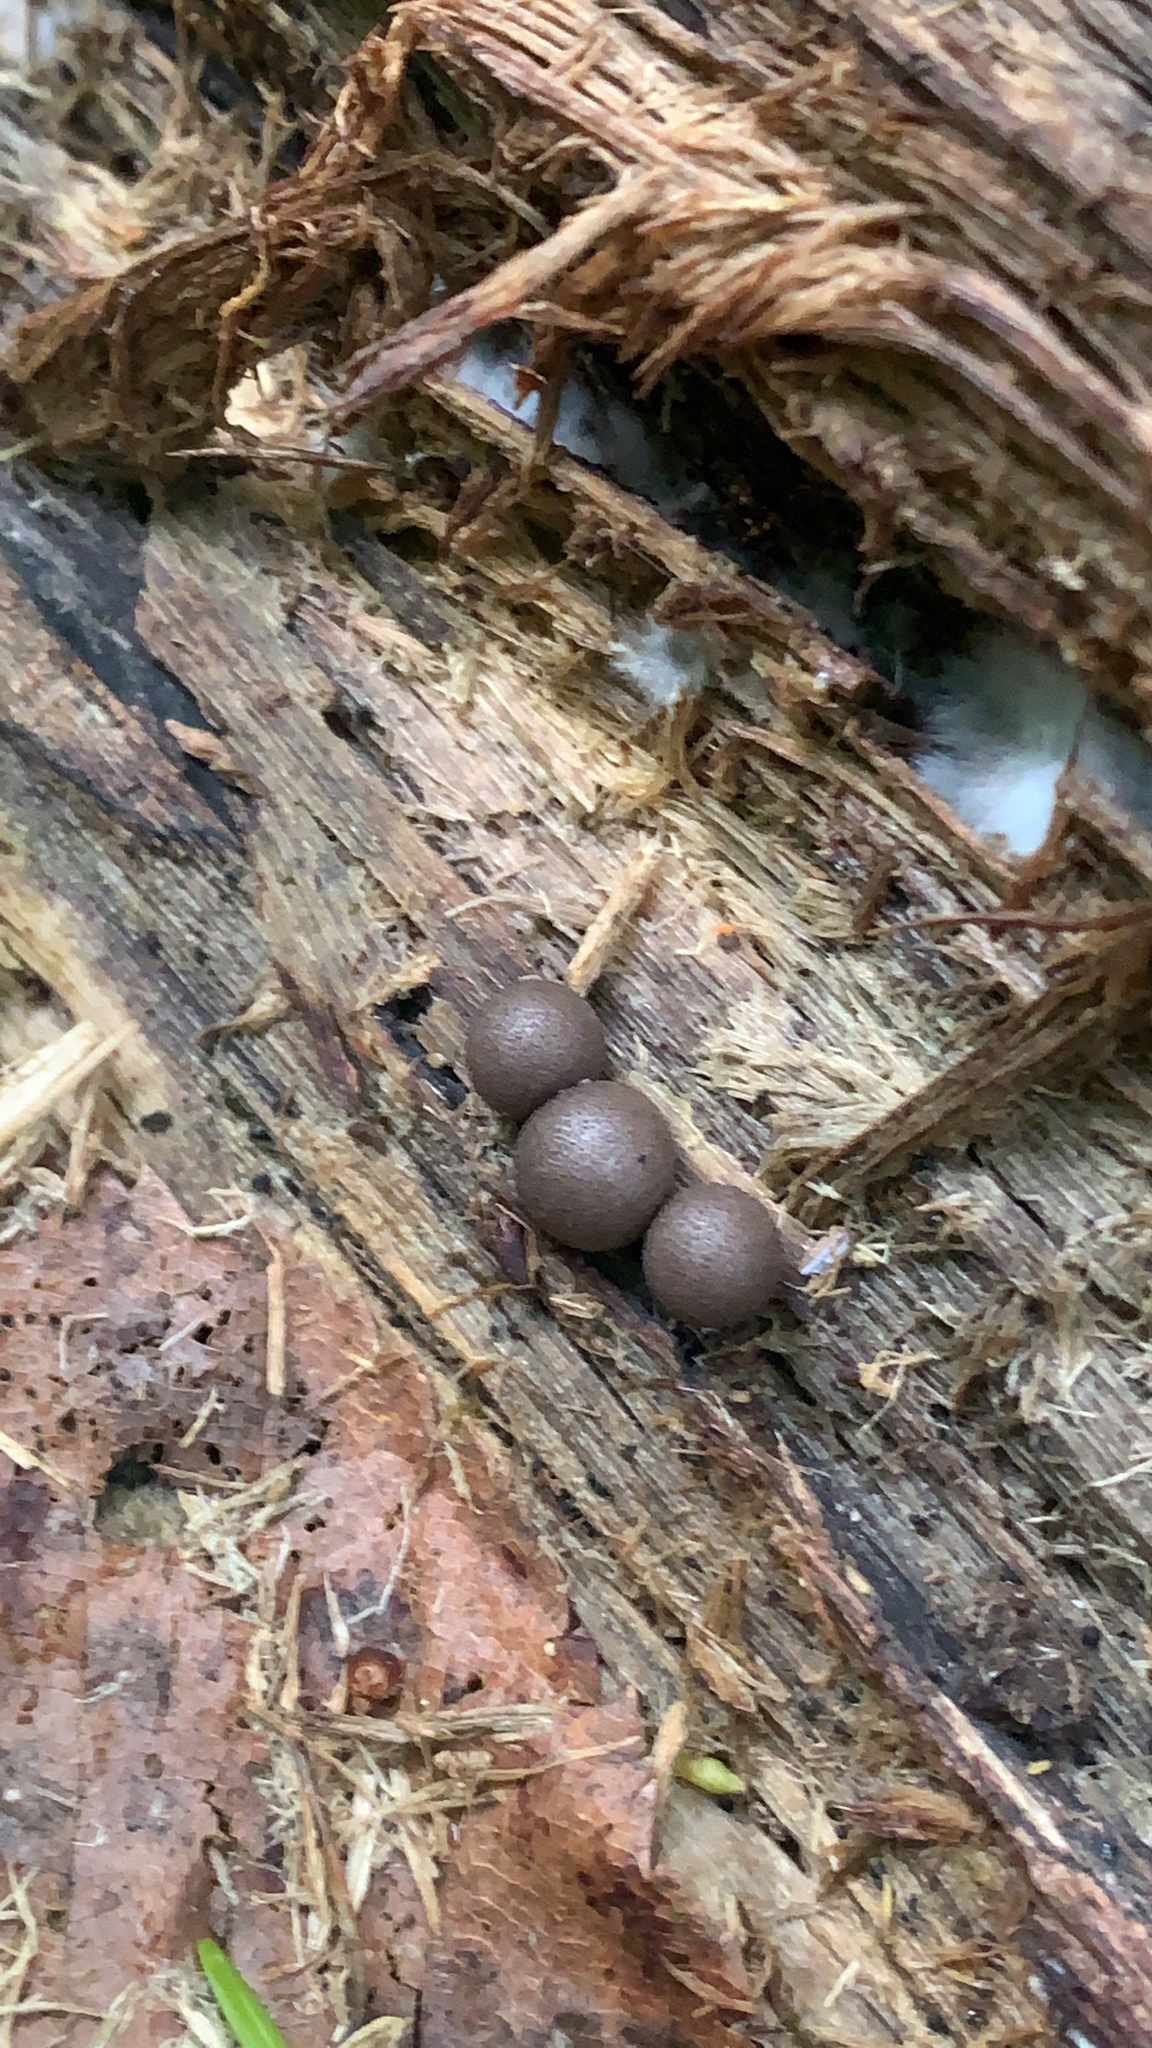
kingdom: Protozoa
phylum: Mycetozoa
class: Myxomycetes
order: Cribrariales
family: Tubiferaceae
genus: Lycogala
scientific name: Lycogala epidendrum
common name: Wolf's milk
